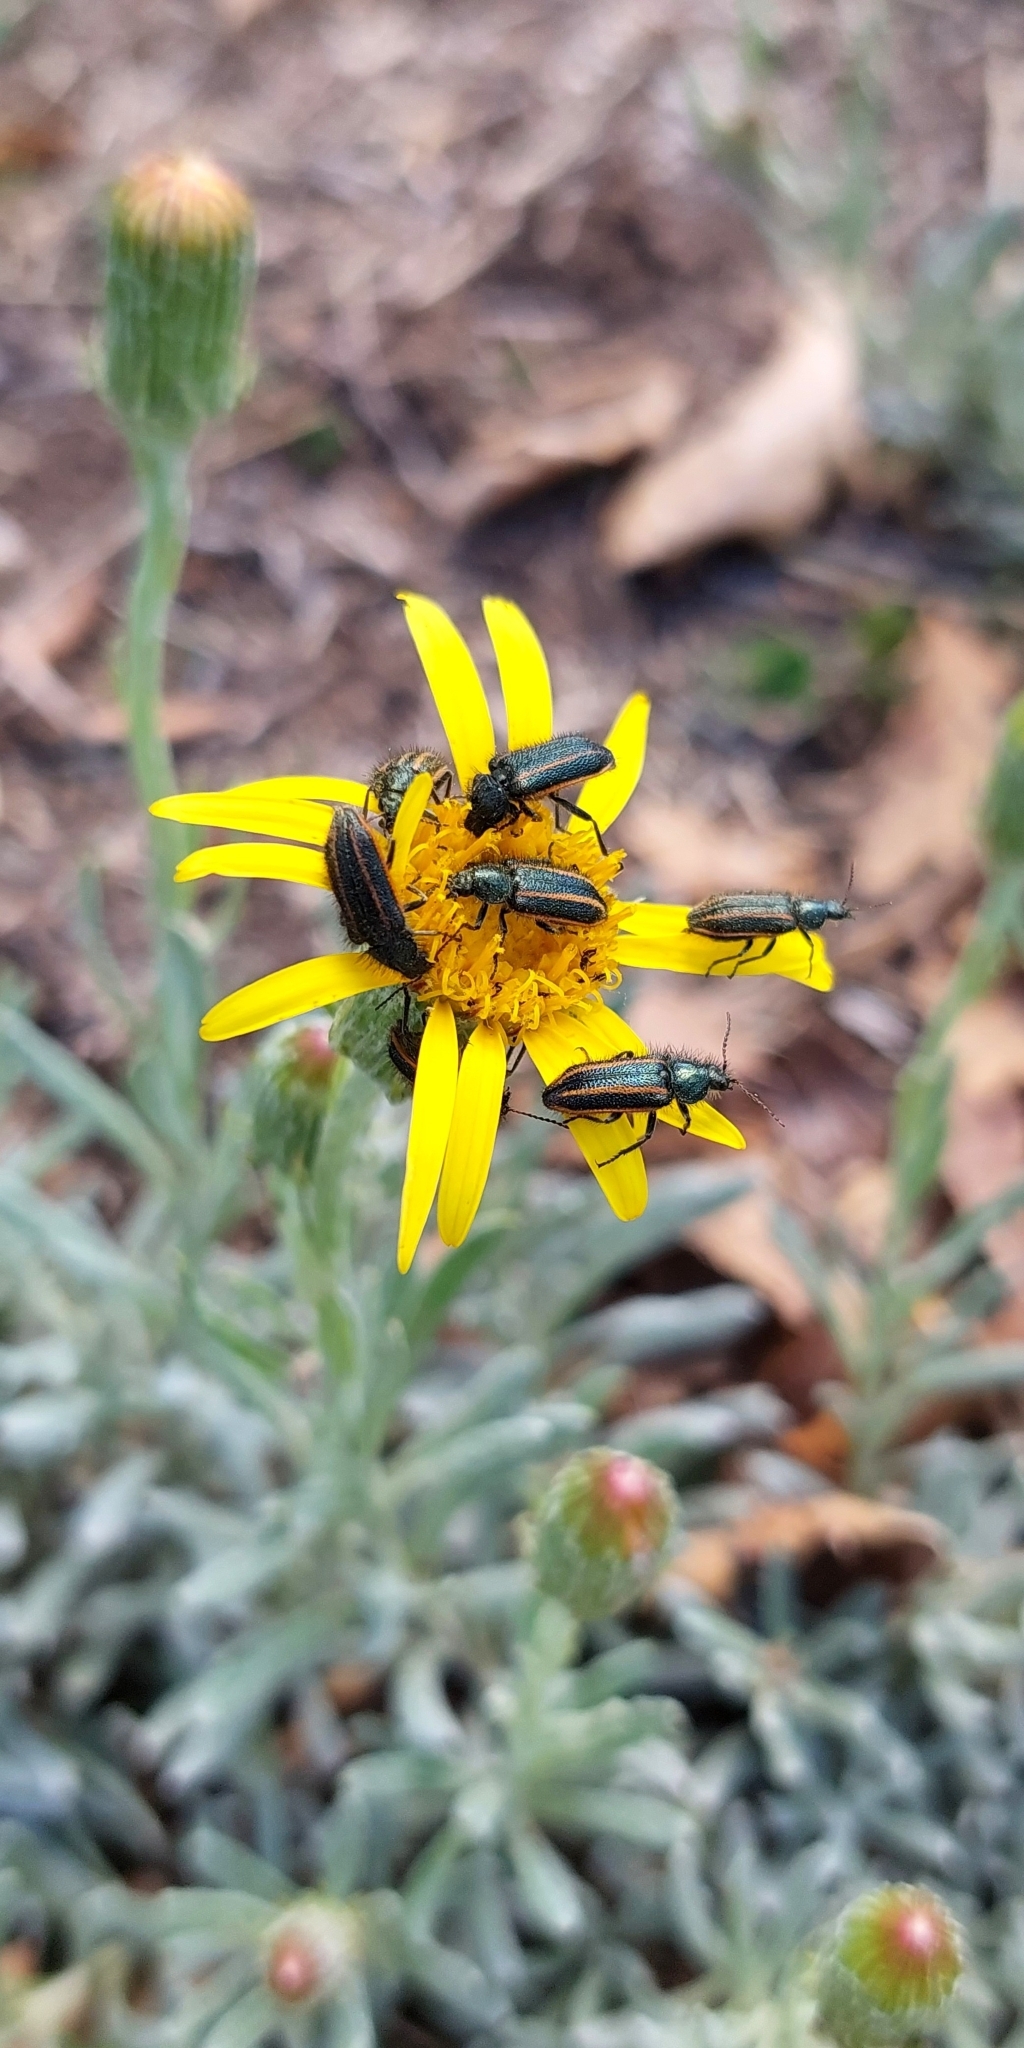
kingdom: Animalia
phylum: Arthropoda
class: Insecta
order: Coleoptera
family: Melyridae
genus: Astylus
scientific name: Astylus
